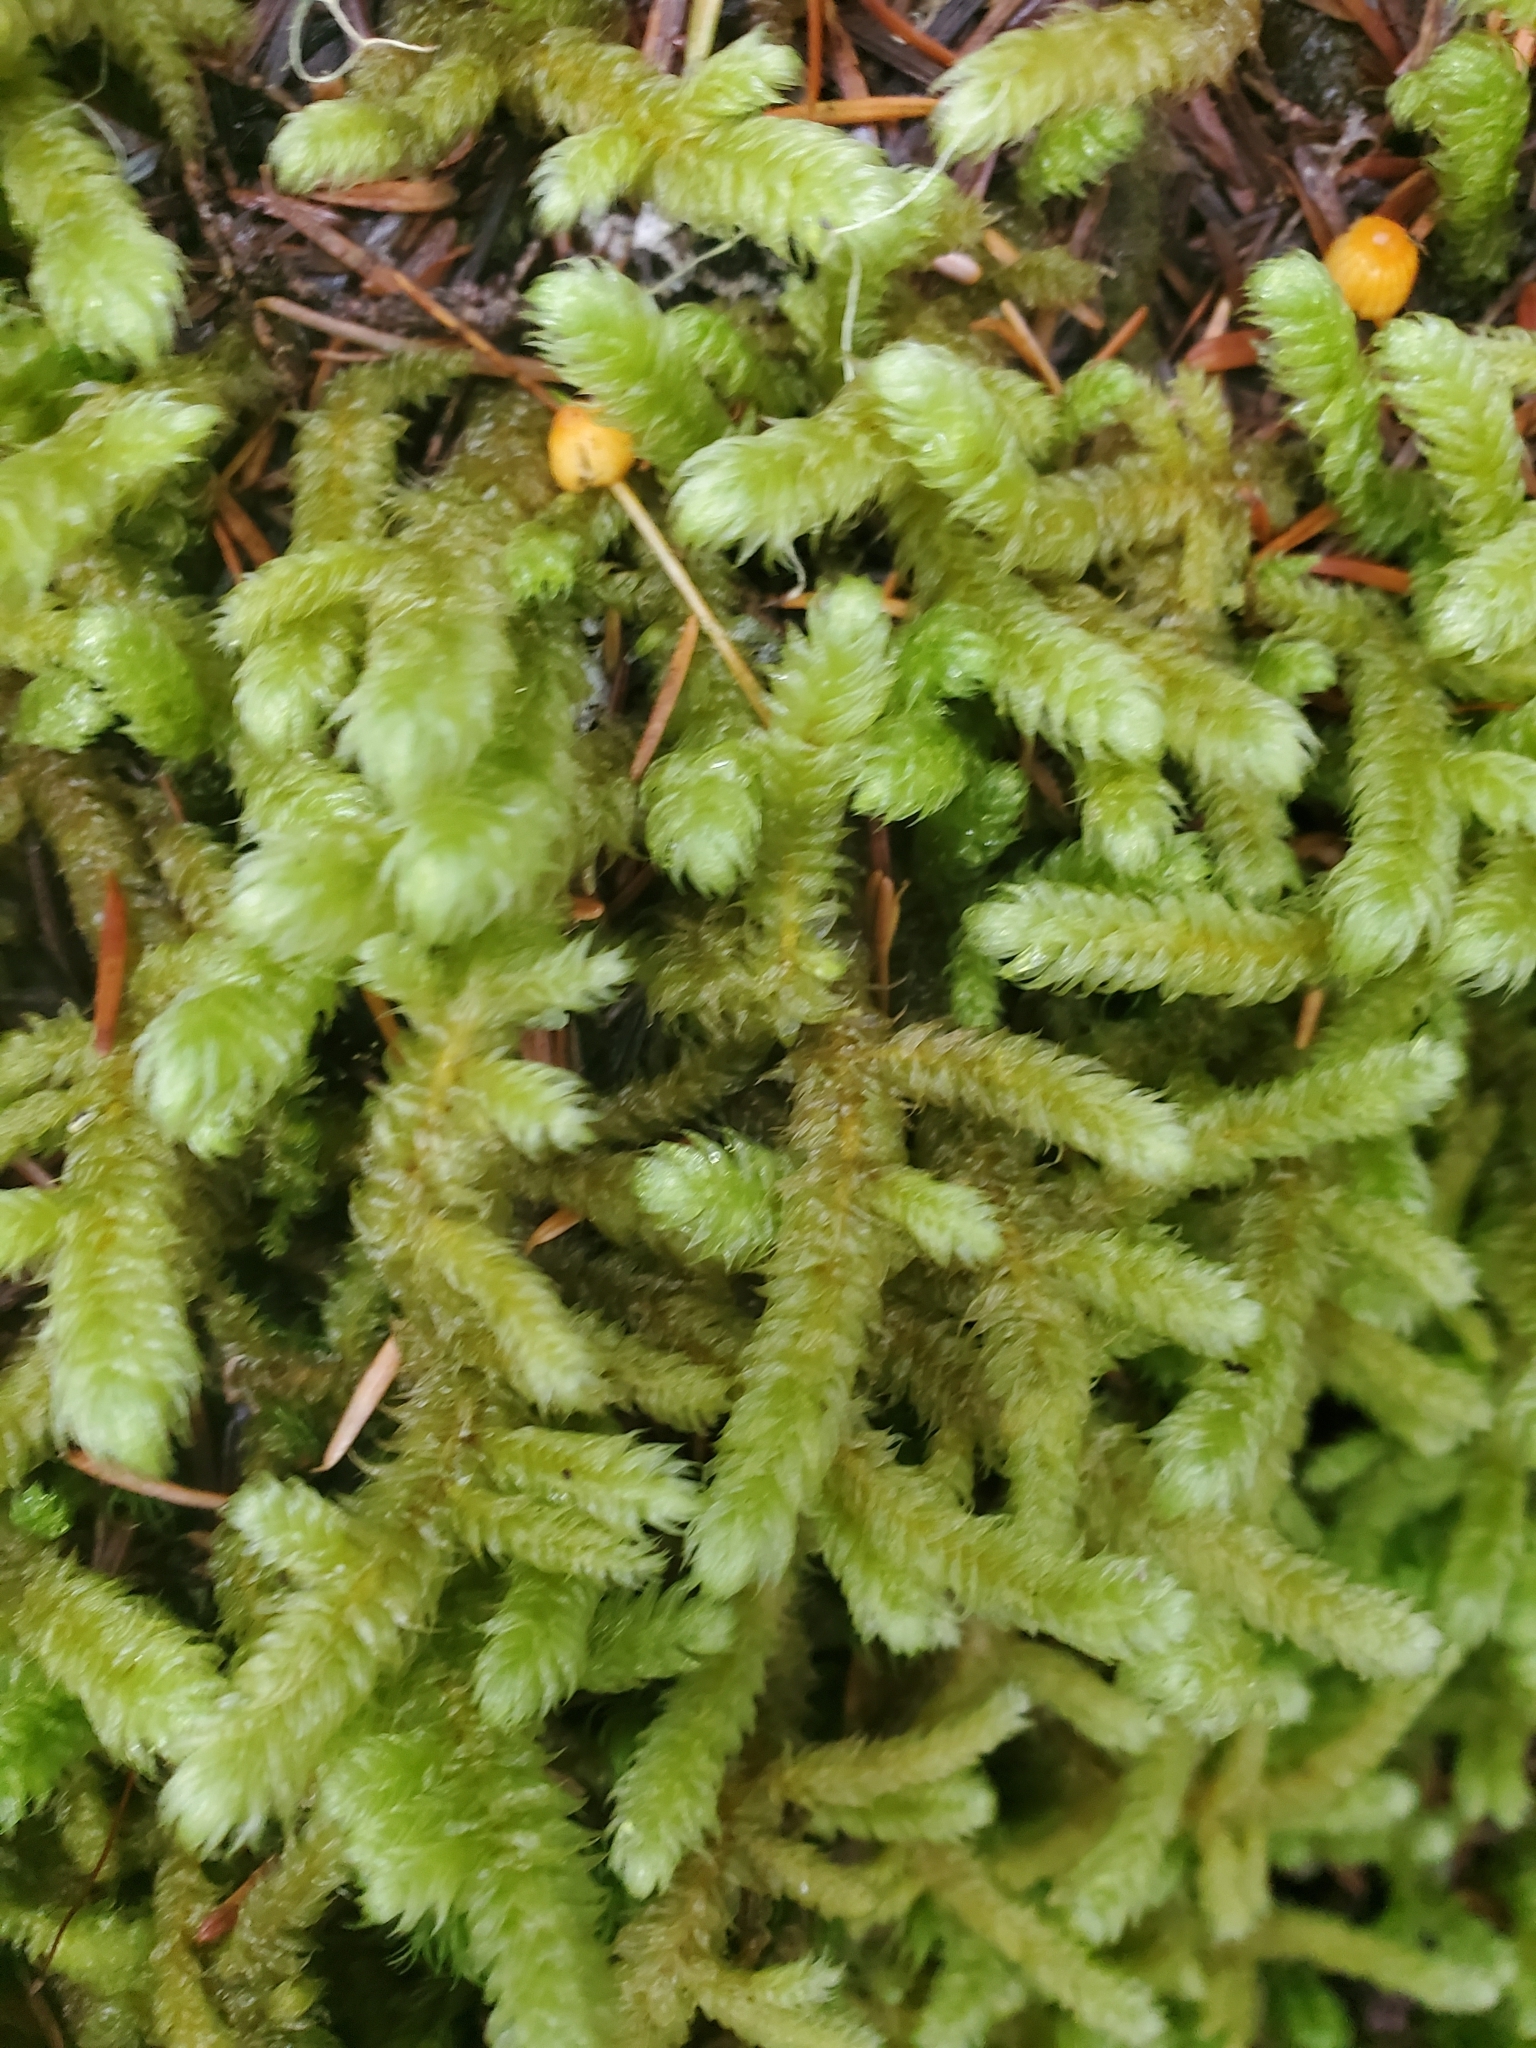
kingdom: Plantae
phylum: Bryophyta
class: Bryopsida
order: Hypnales
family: Hylocomiaceae
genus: Rhytidiopsis
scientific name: Rhytidiopsis robusta
